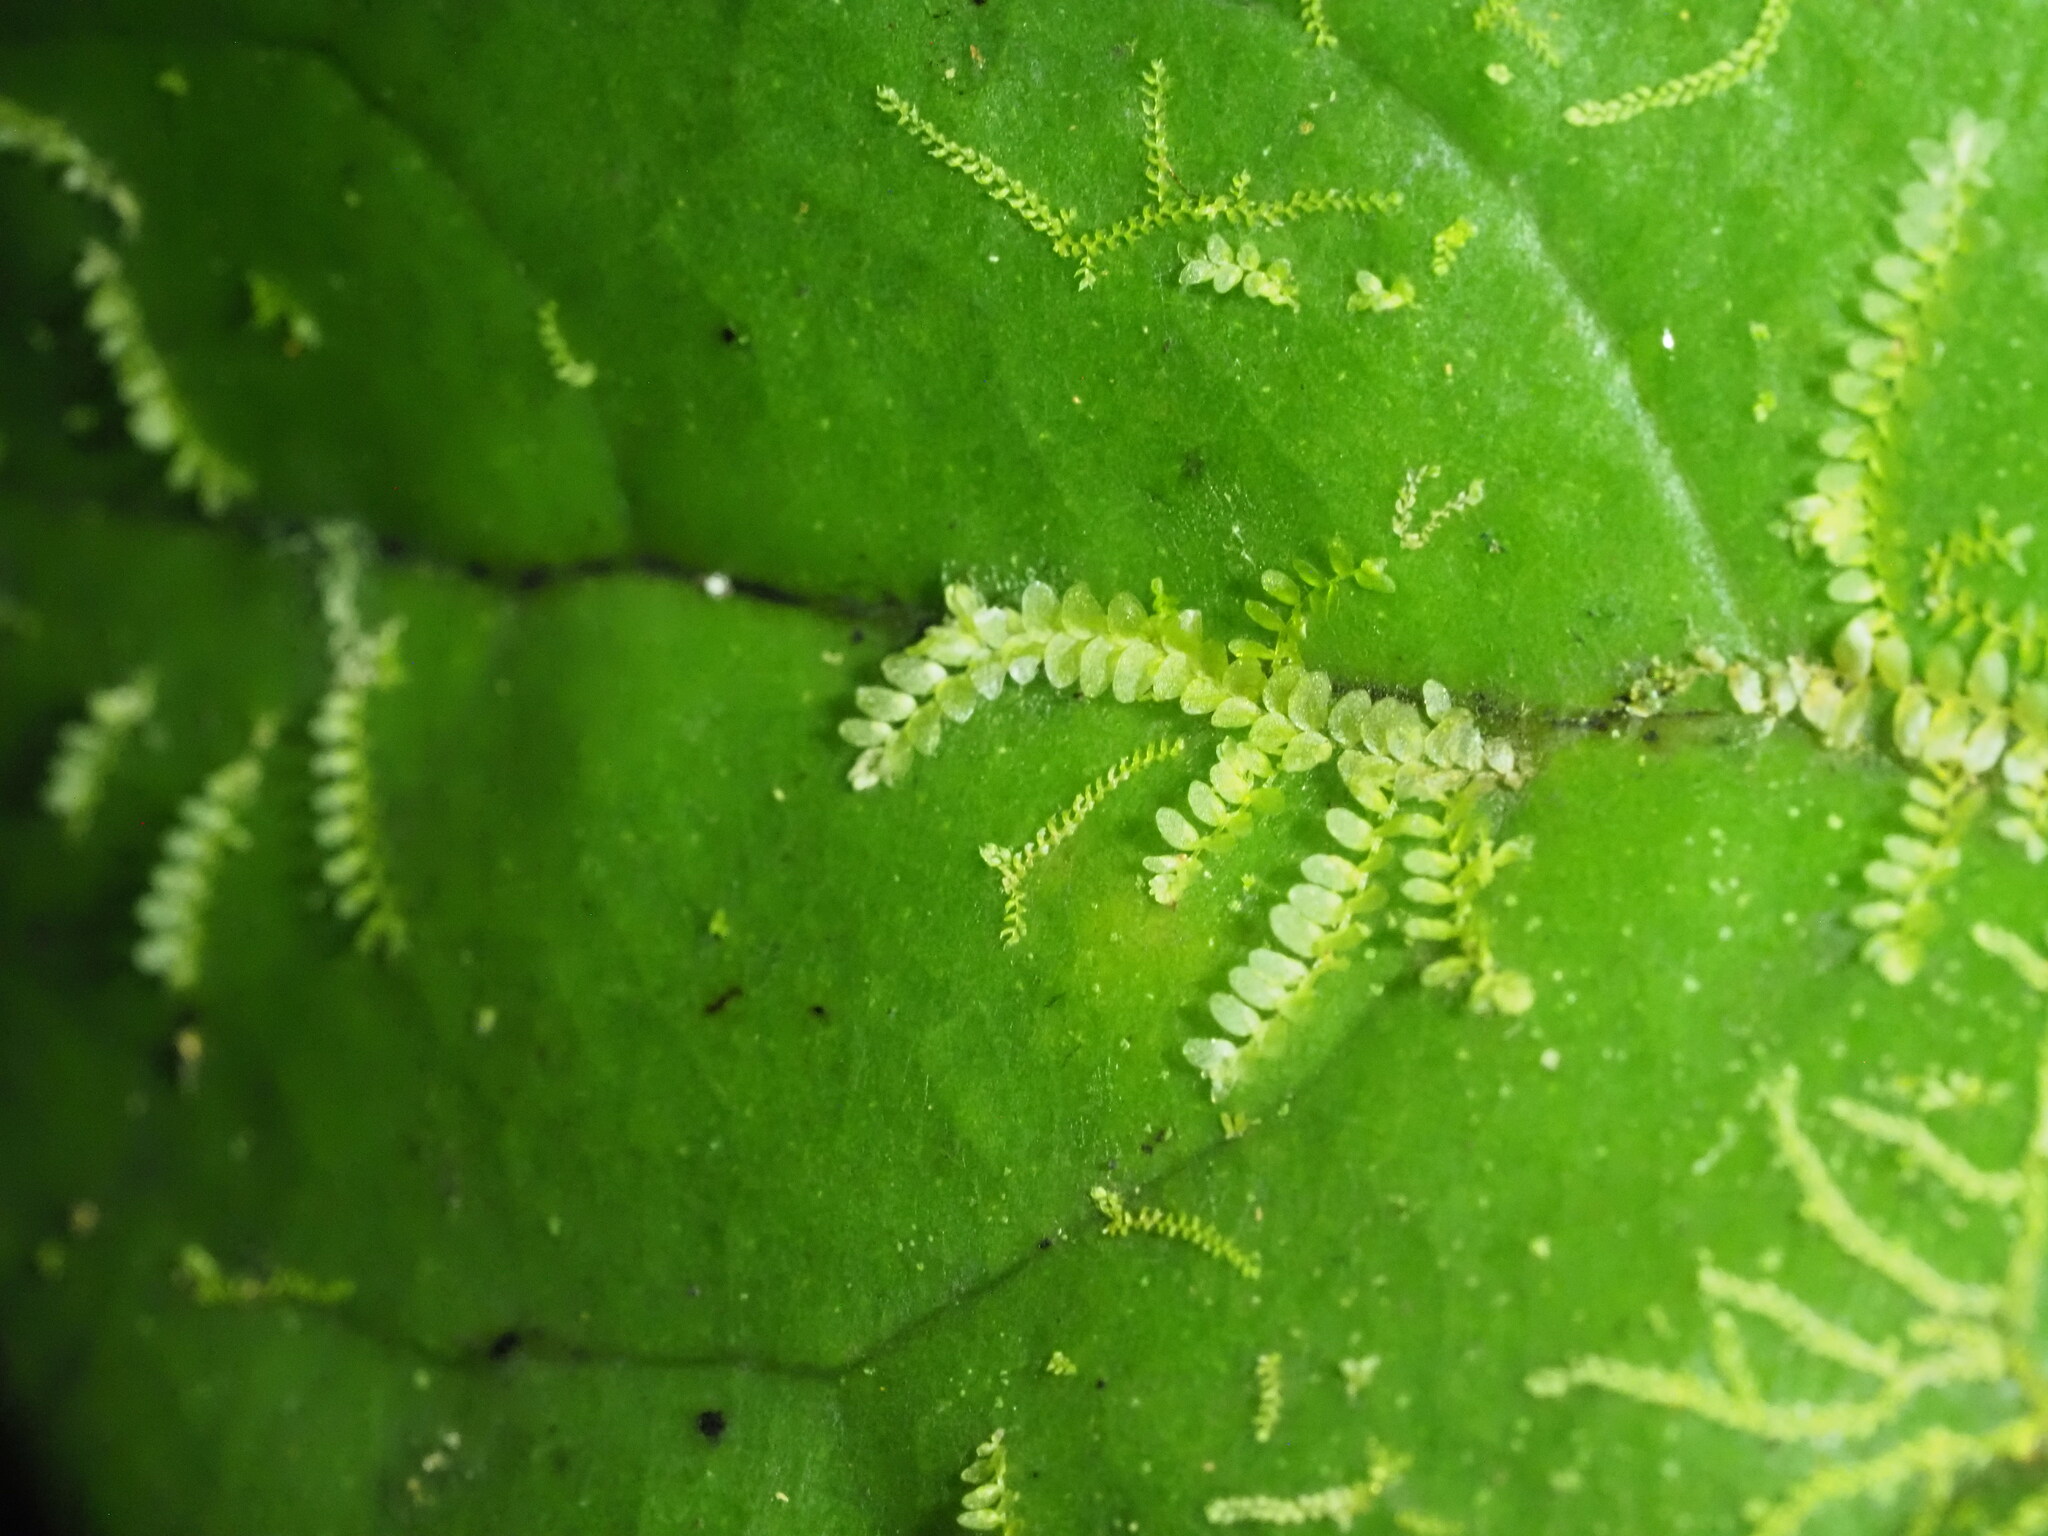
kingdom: Plantae
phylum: Marchantiophyta
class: Jungermanniopsida
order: Porellales
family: Lejeuneaceae
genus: Cololejeunea
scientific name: Cololejeunea ceatocarpa
